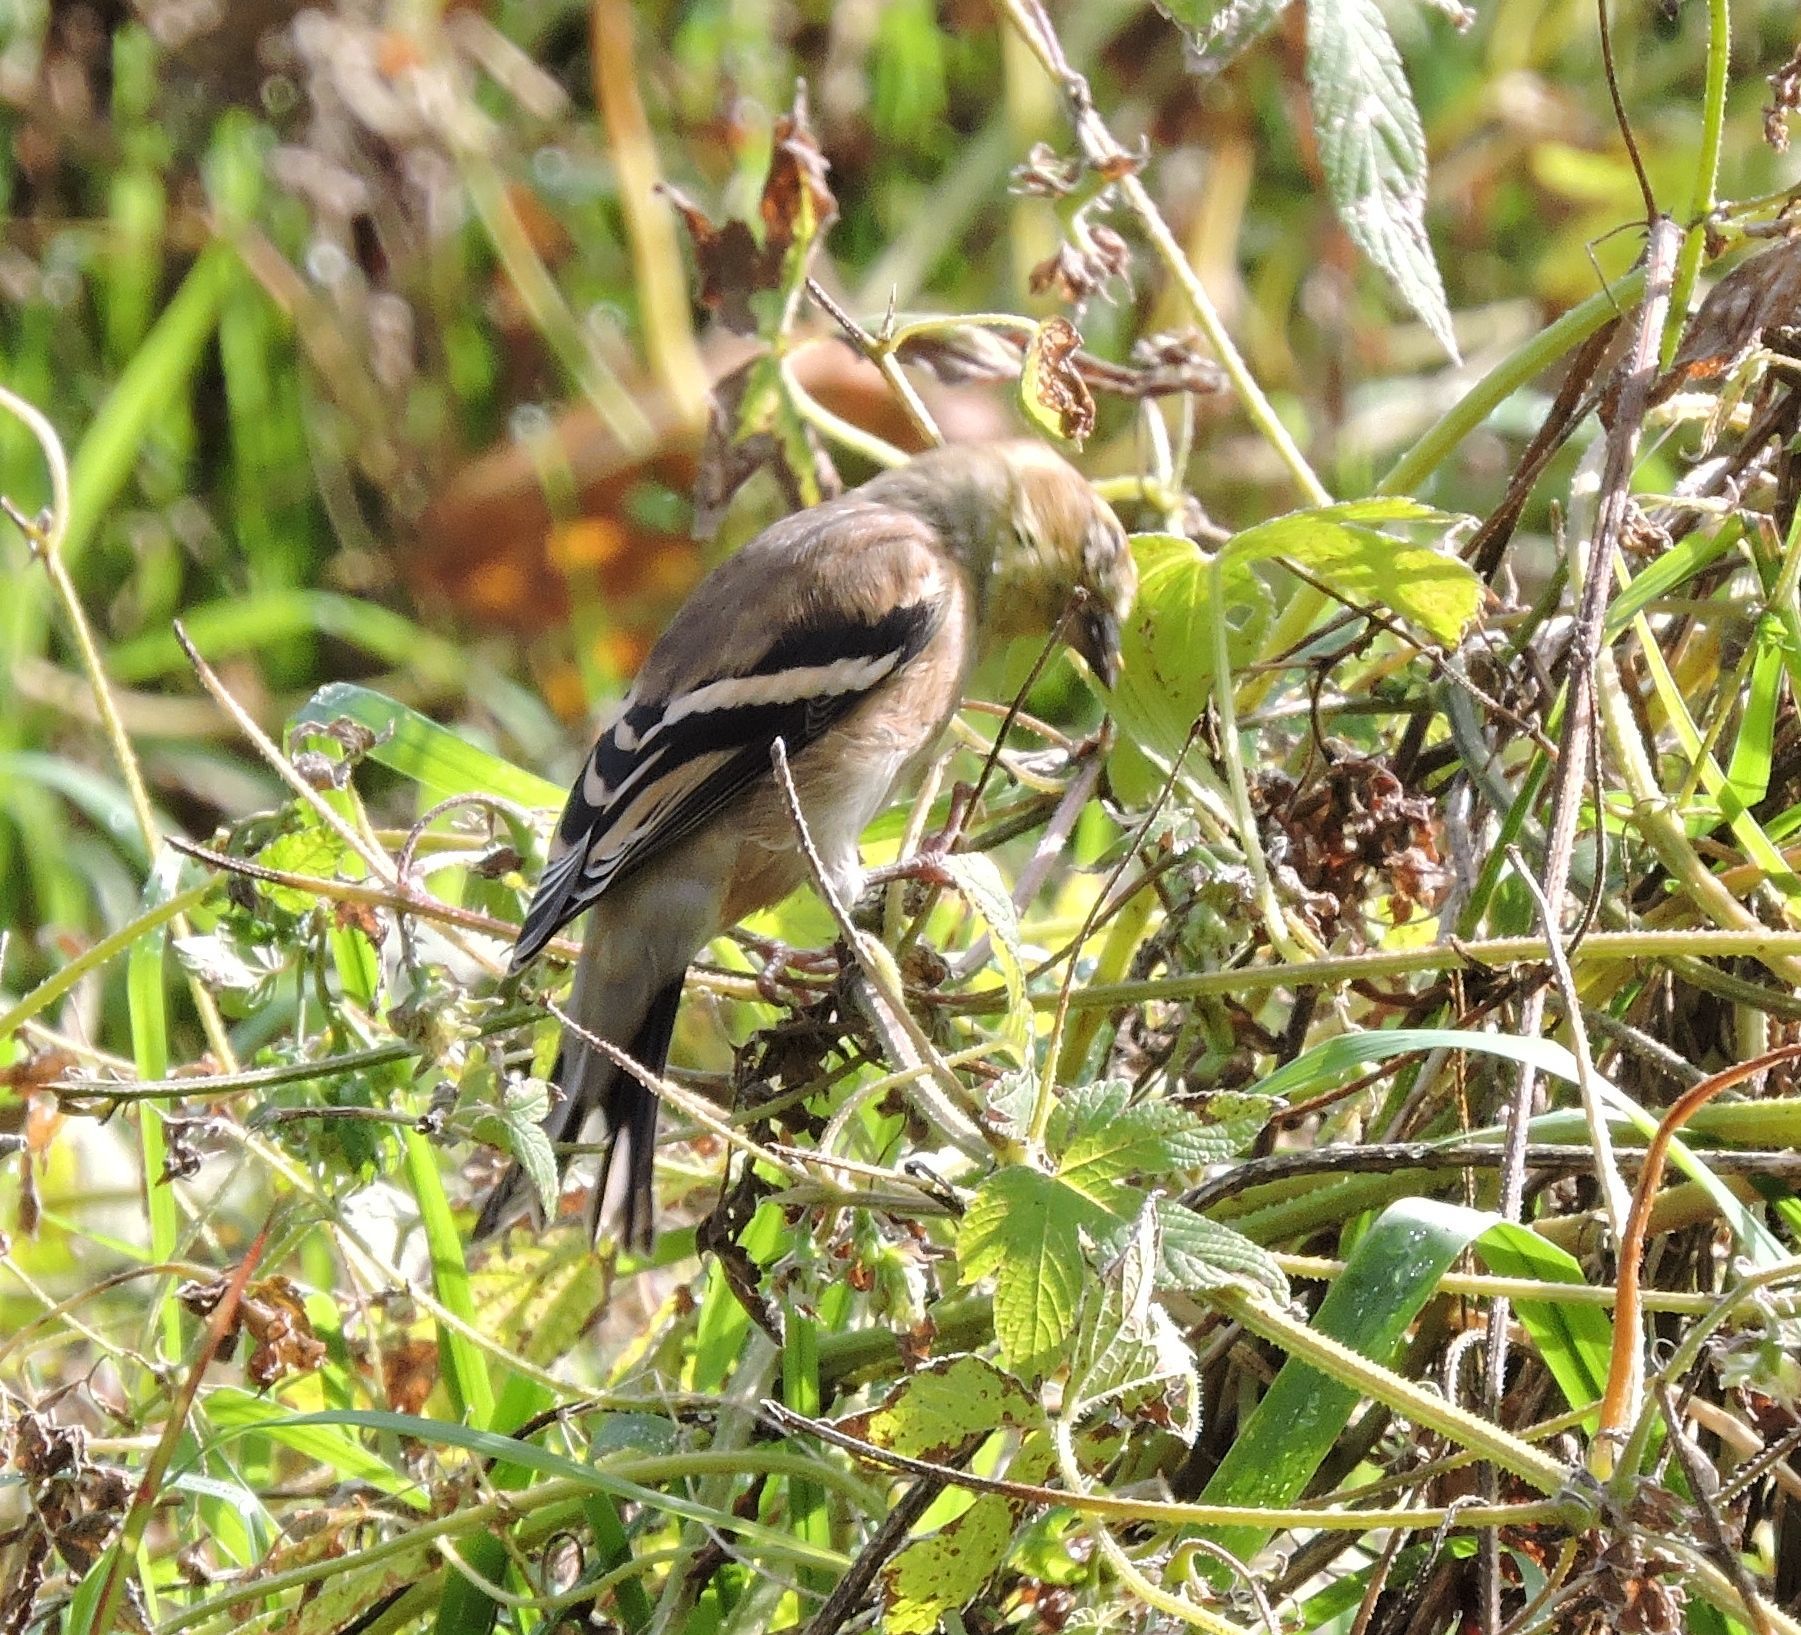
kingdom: Animalia
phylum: Chordata
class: Aves
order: Passeriformes
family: Fringillidae
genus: Spinus
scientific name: Spinus tristis
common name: American goldfinch
